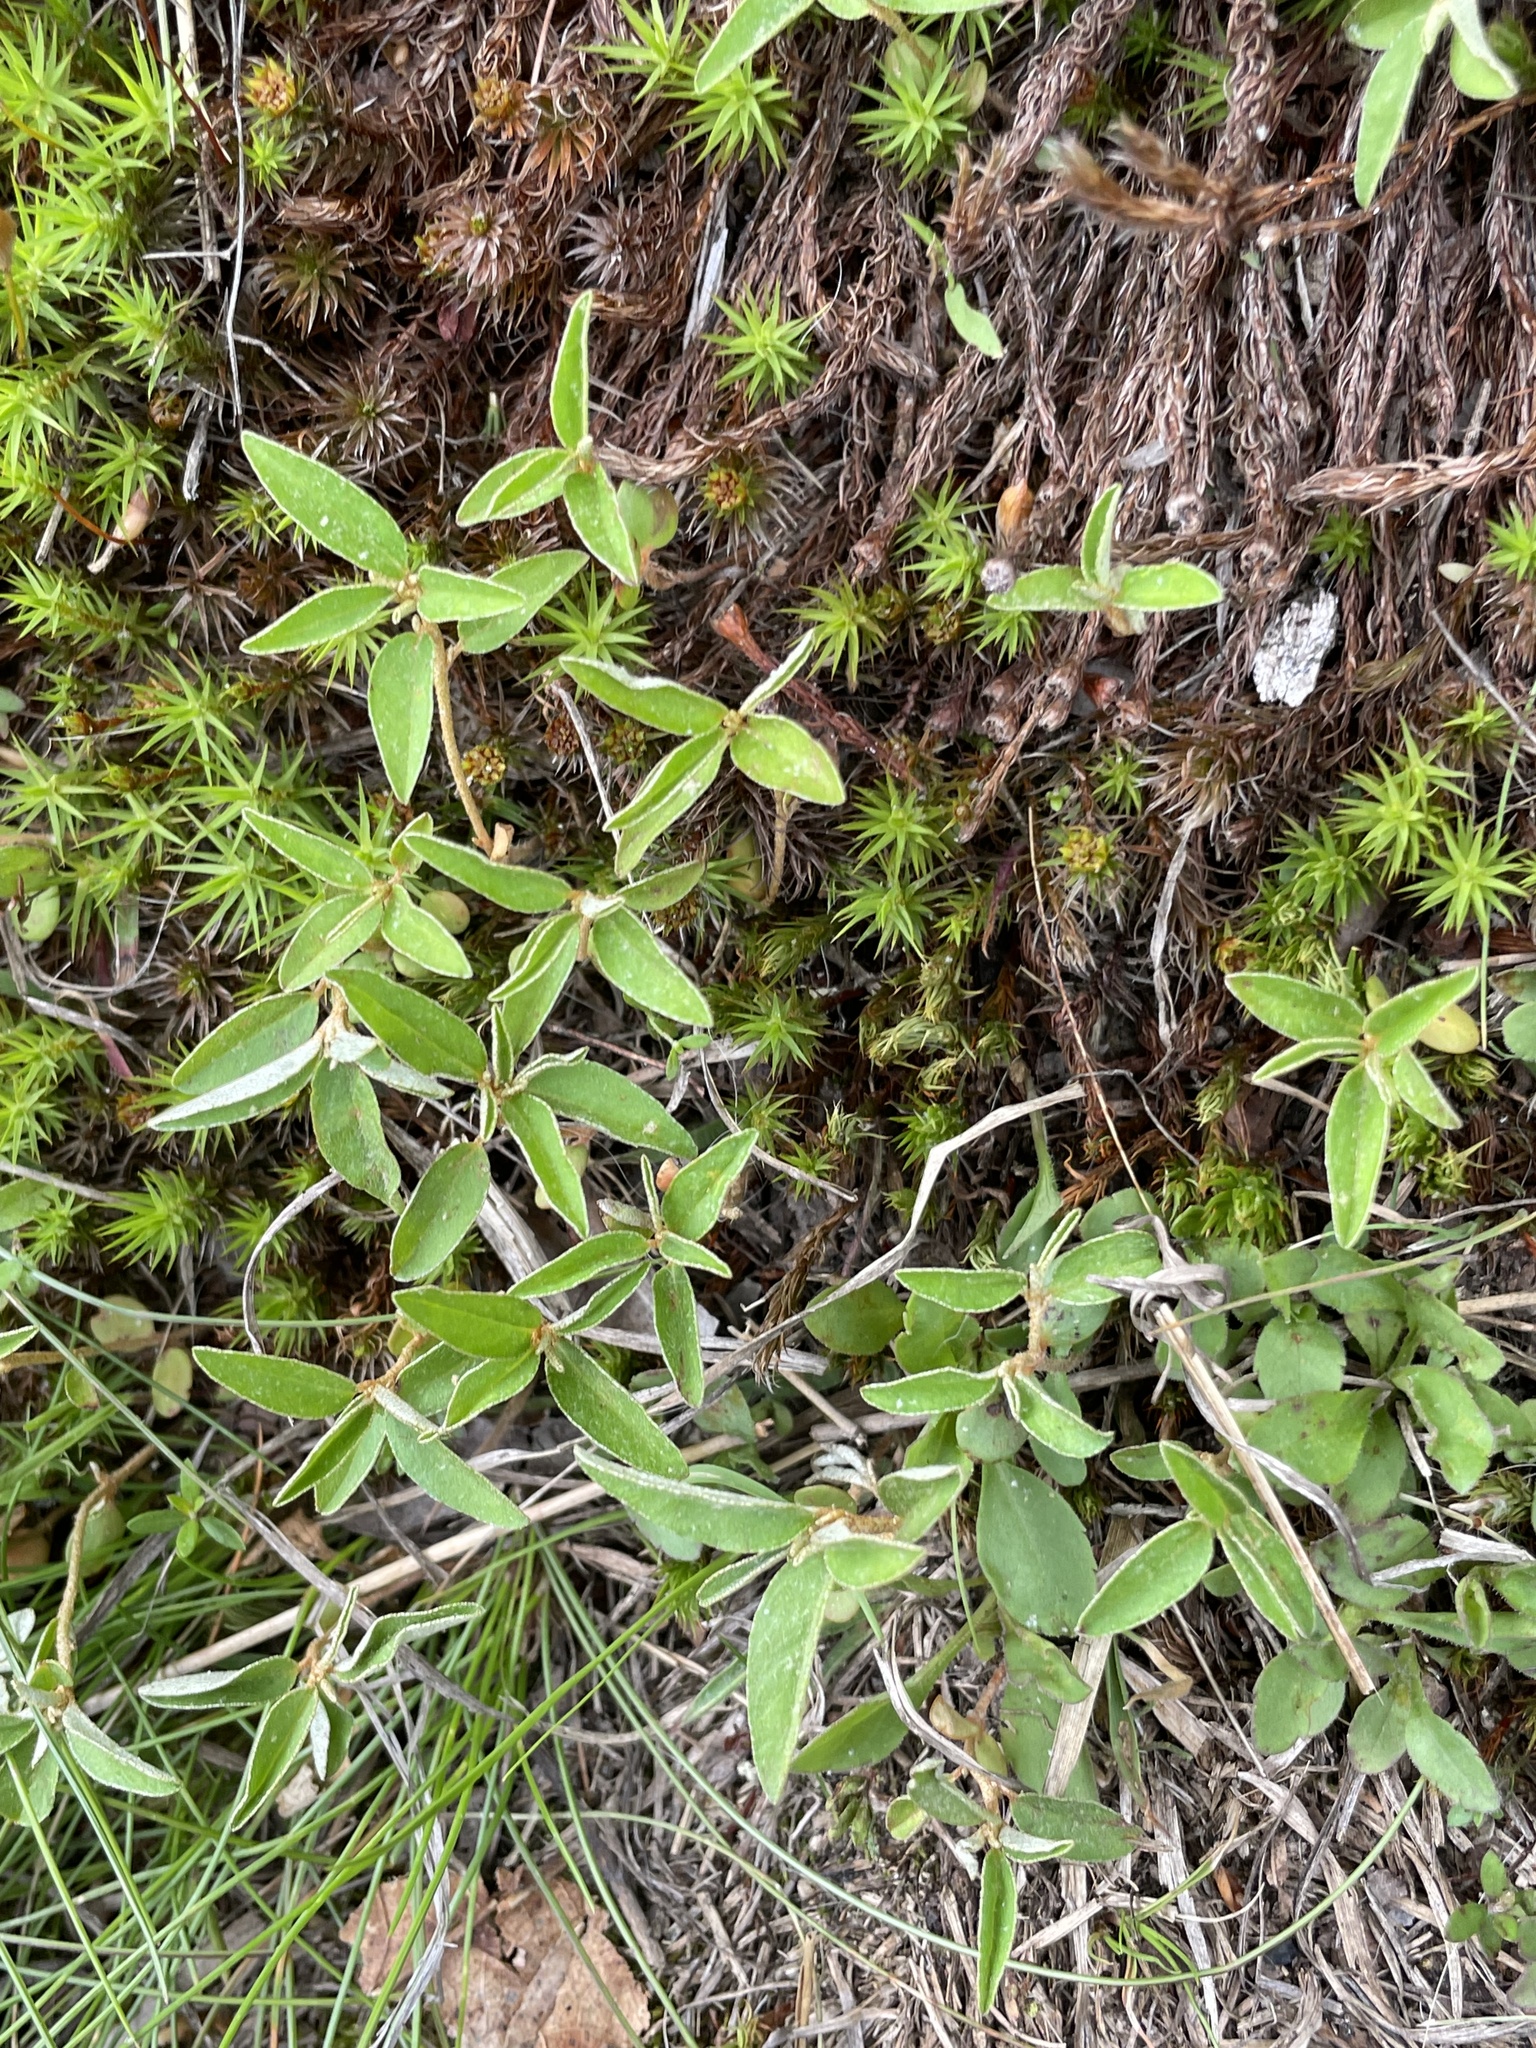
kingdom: Plantae
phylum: Tracheophyta
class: Magnoliopsida
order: Malpighiales
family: Euphorbiaceae
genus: Croton
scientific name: Croton michauxii
